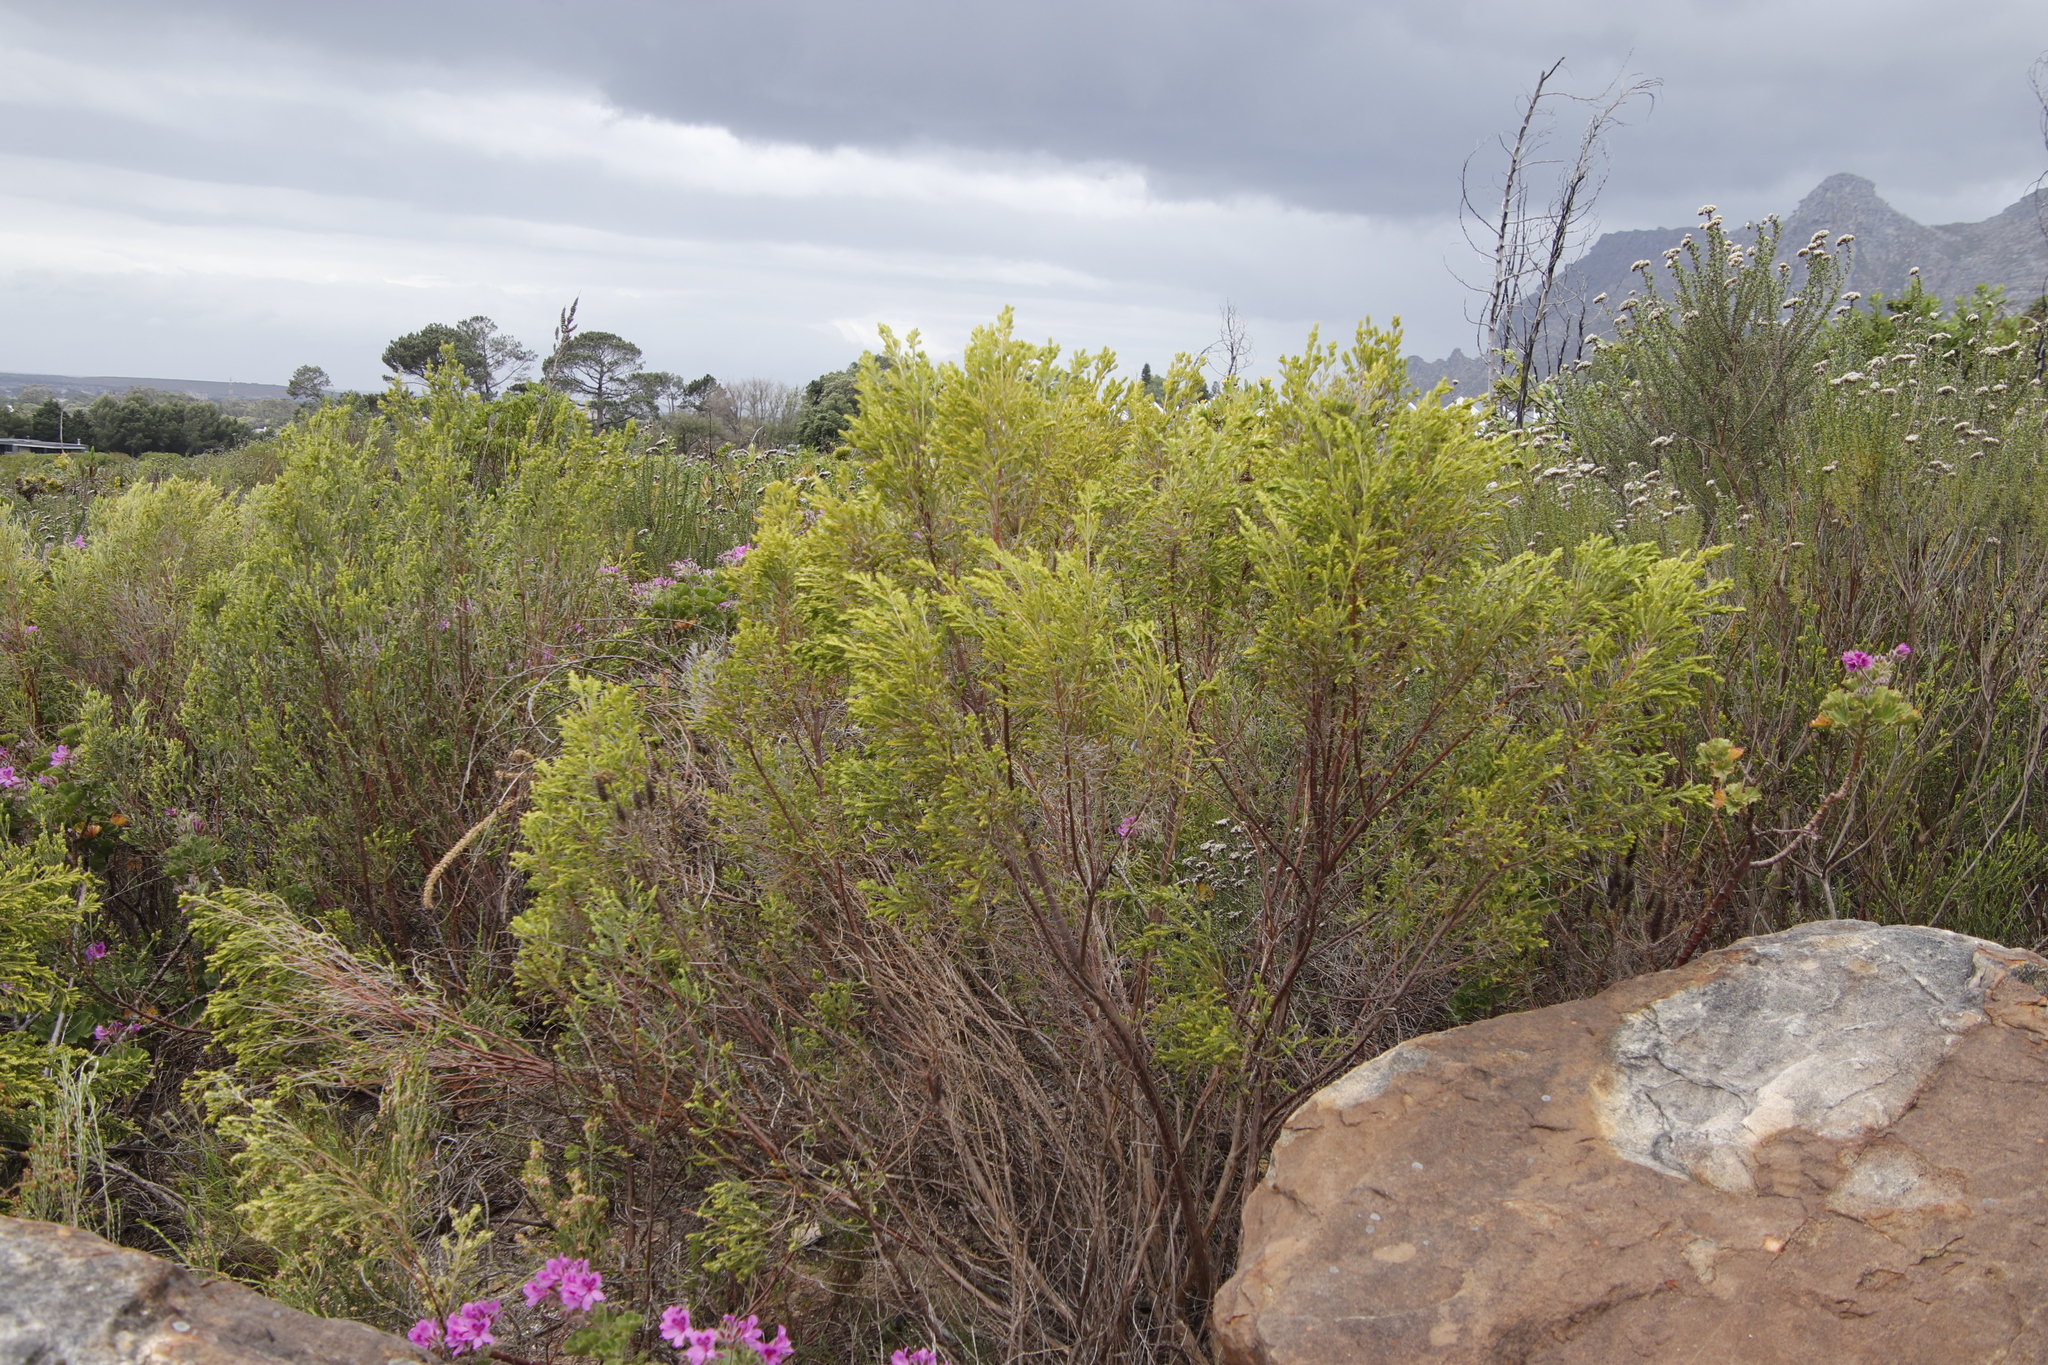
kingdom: Plantae
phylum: Tracheophyta
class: Magnoliopsida
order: Malvales
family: Thymelaeaceae
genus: Passerina
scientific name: Passerina corymbosa
